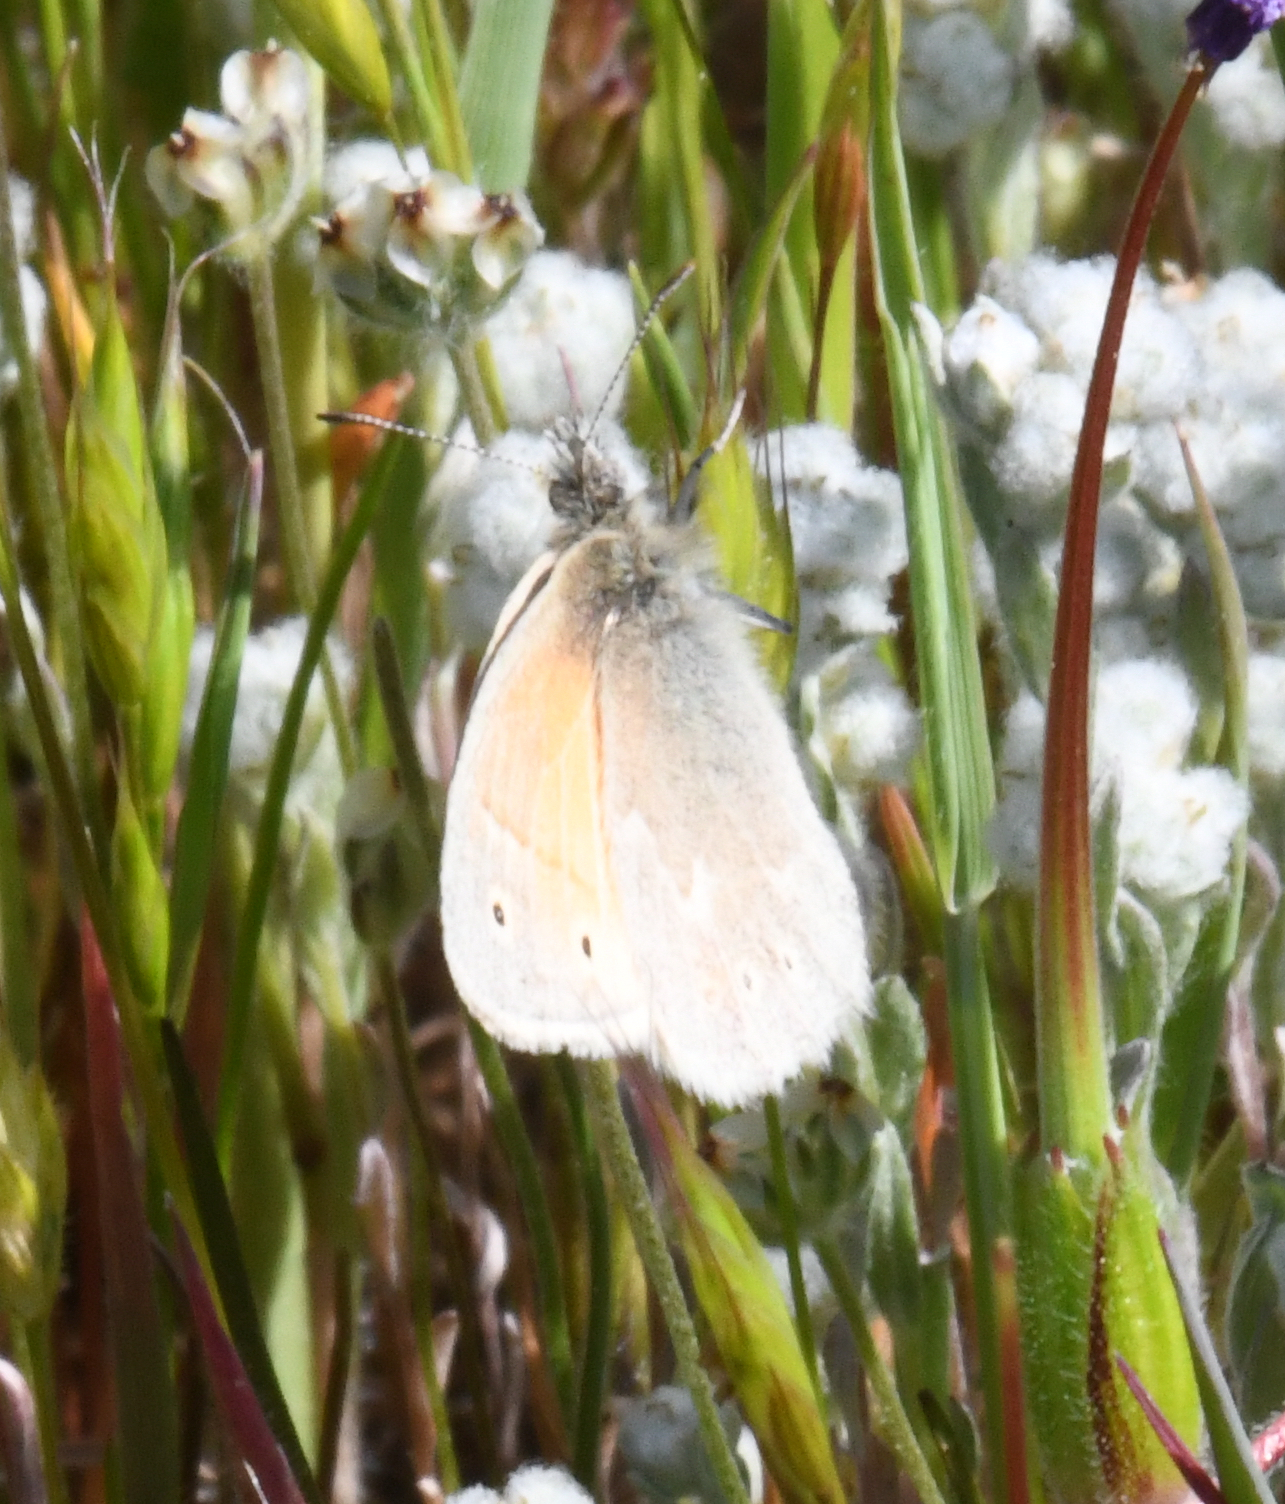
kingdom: Animalia
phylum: Arthropoda
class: Insecta
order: Lepidoptera
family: Nymphalidae
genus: Coenonympha
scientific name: Coenonympha california
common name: Common ringlet
